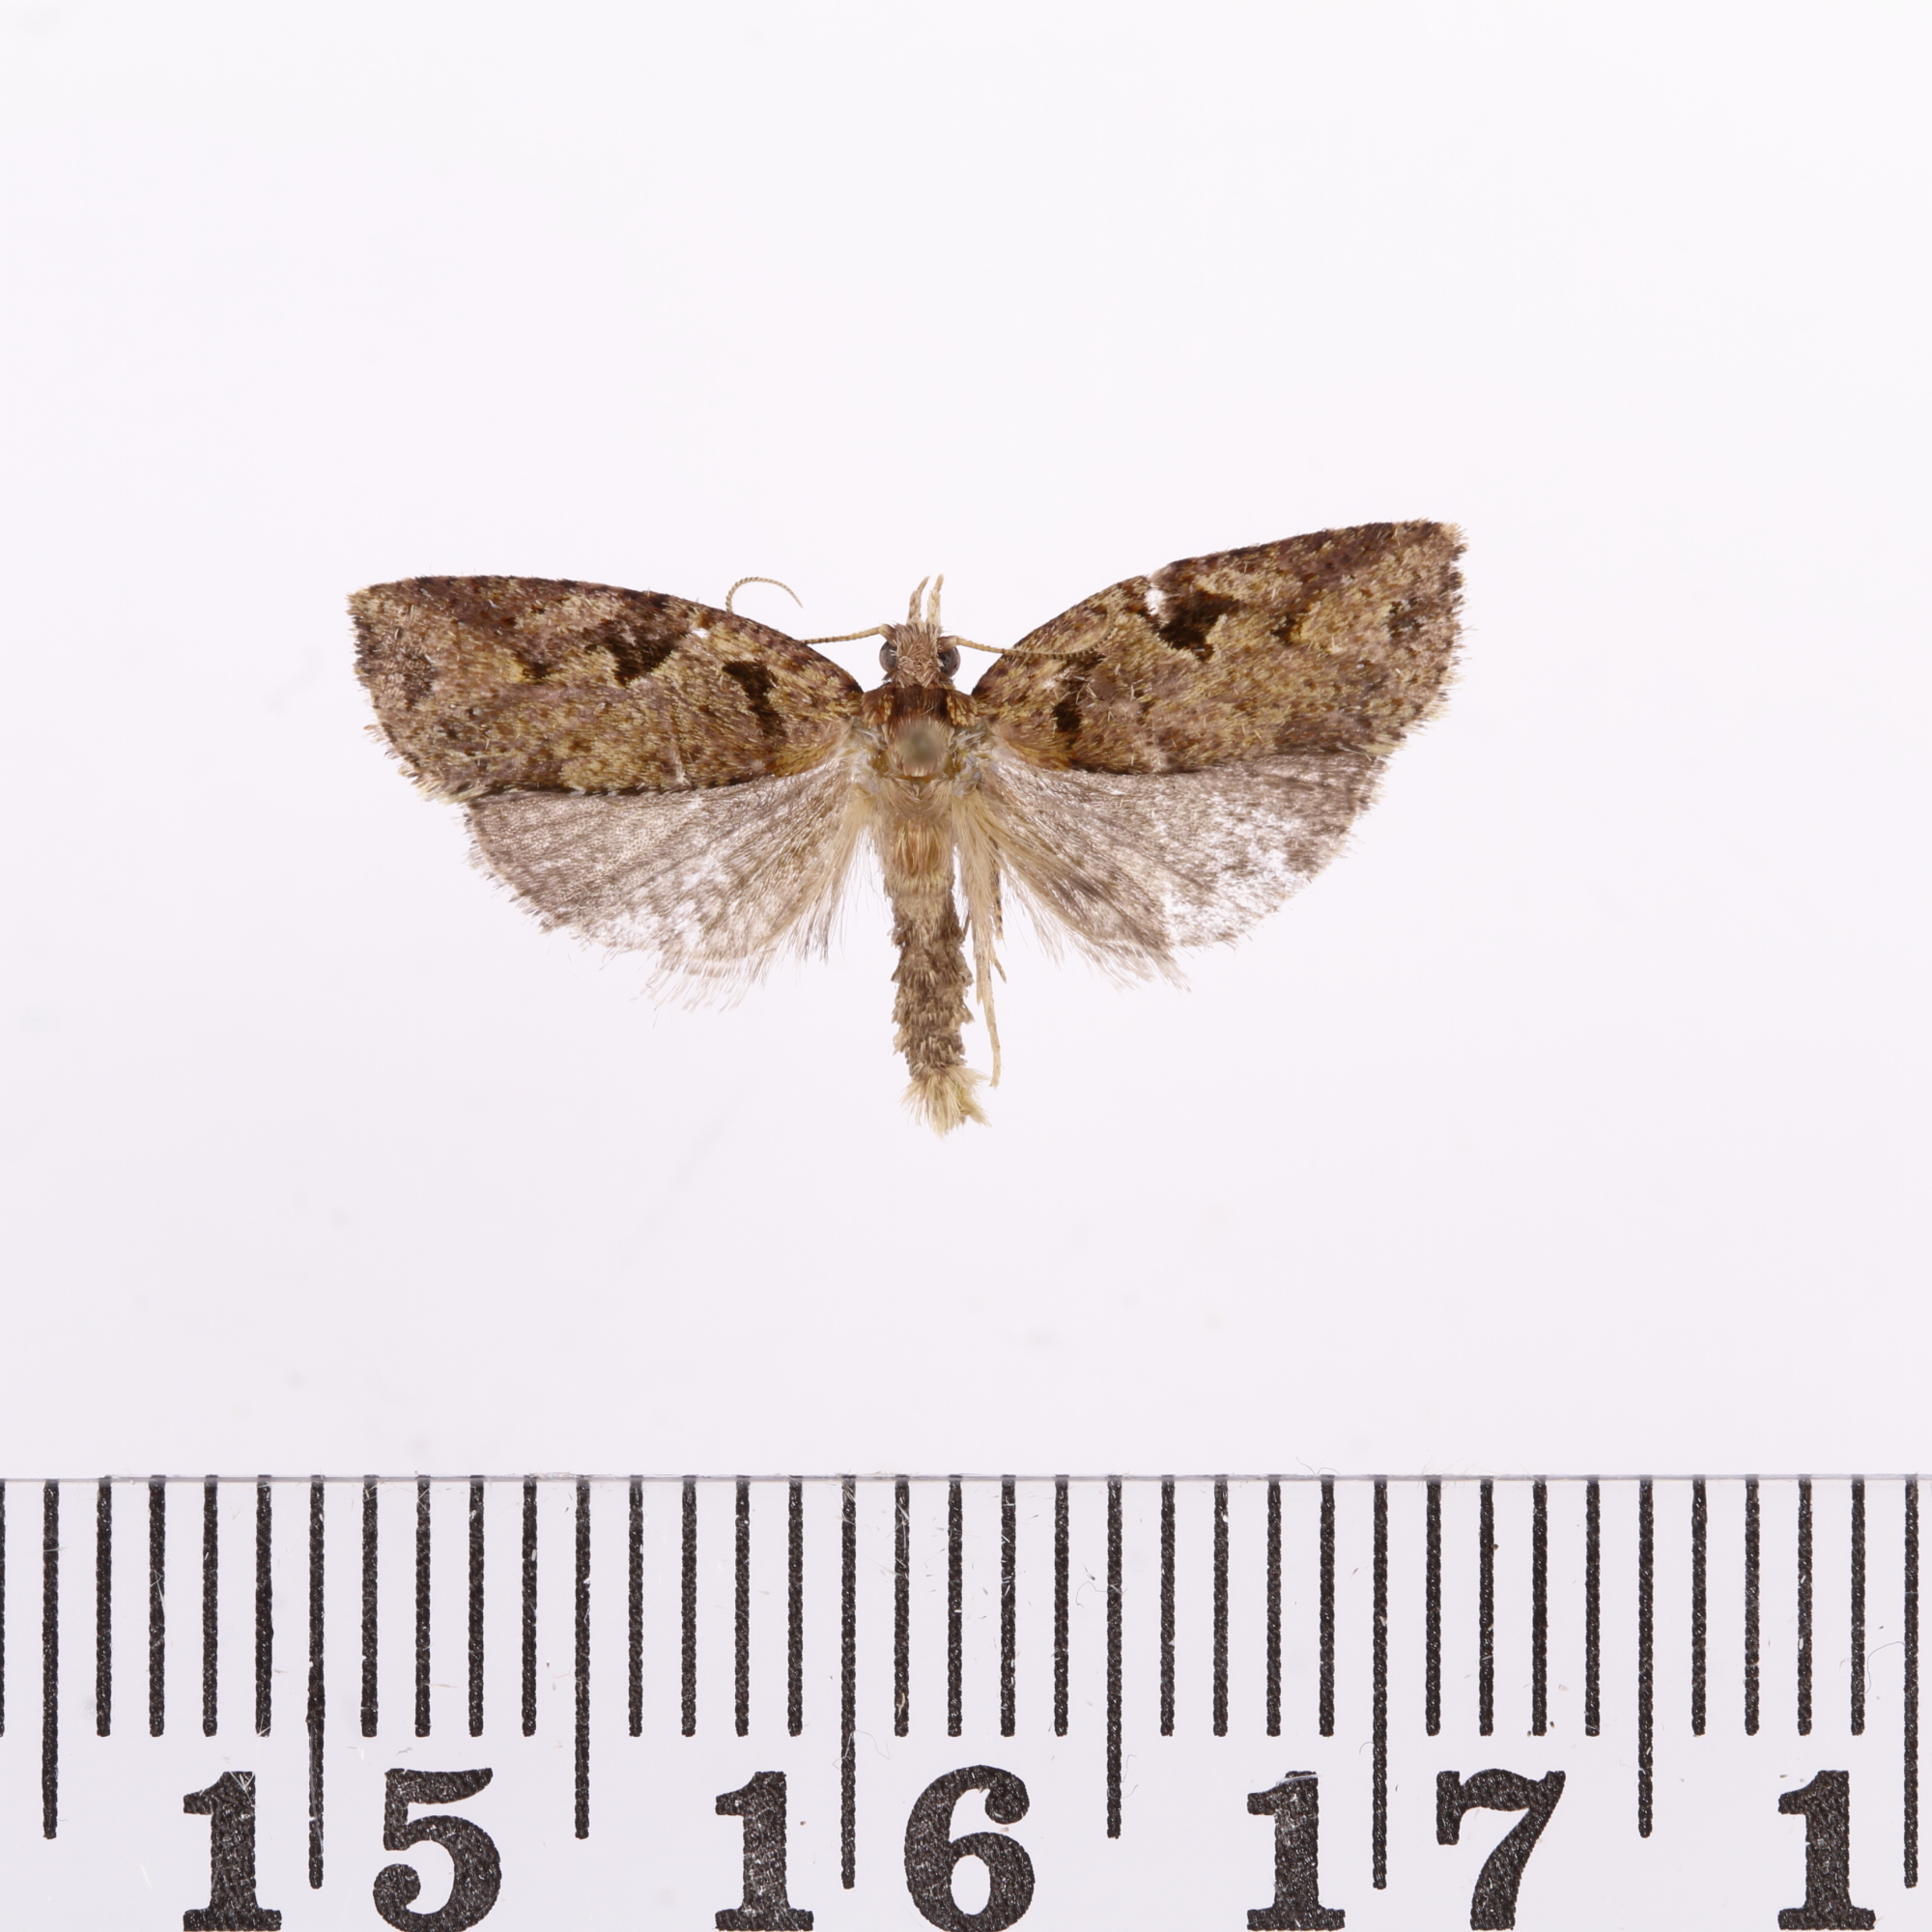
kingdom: Animalia
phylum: Arthropoda
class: Insecta
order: Lepidoptera
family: Tortricidae
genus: Ctenopseustis
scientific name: Ctenopseustis obliquana
